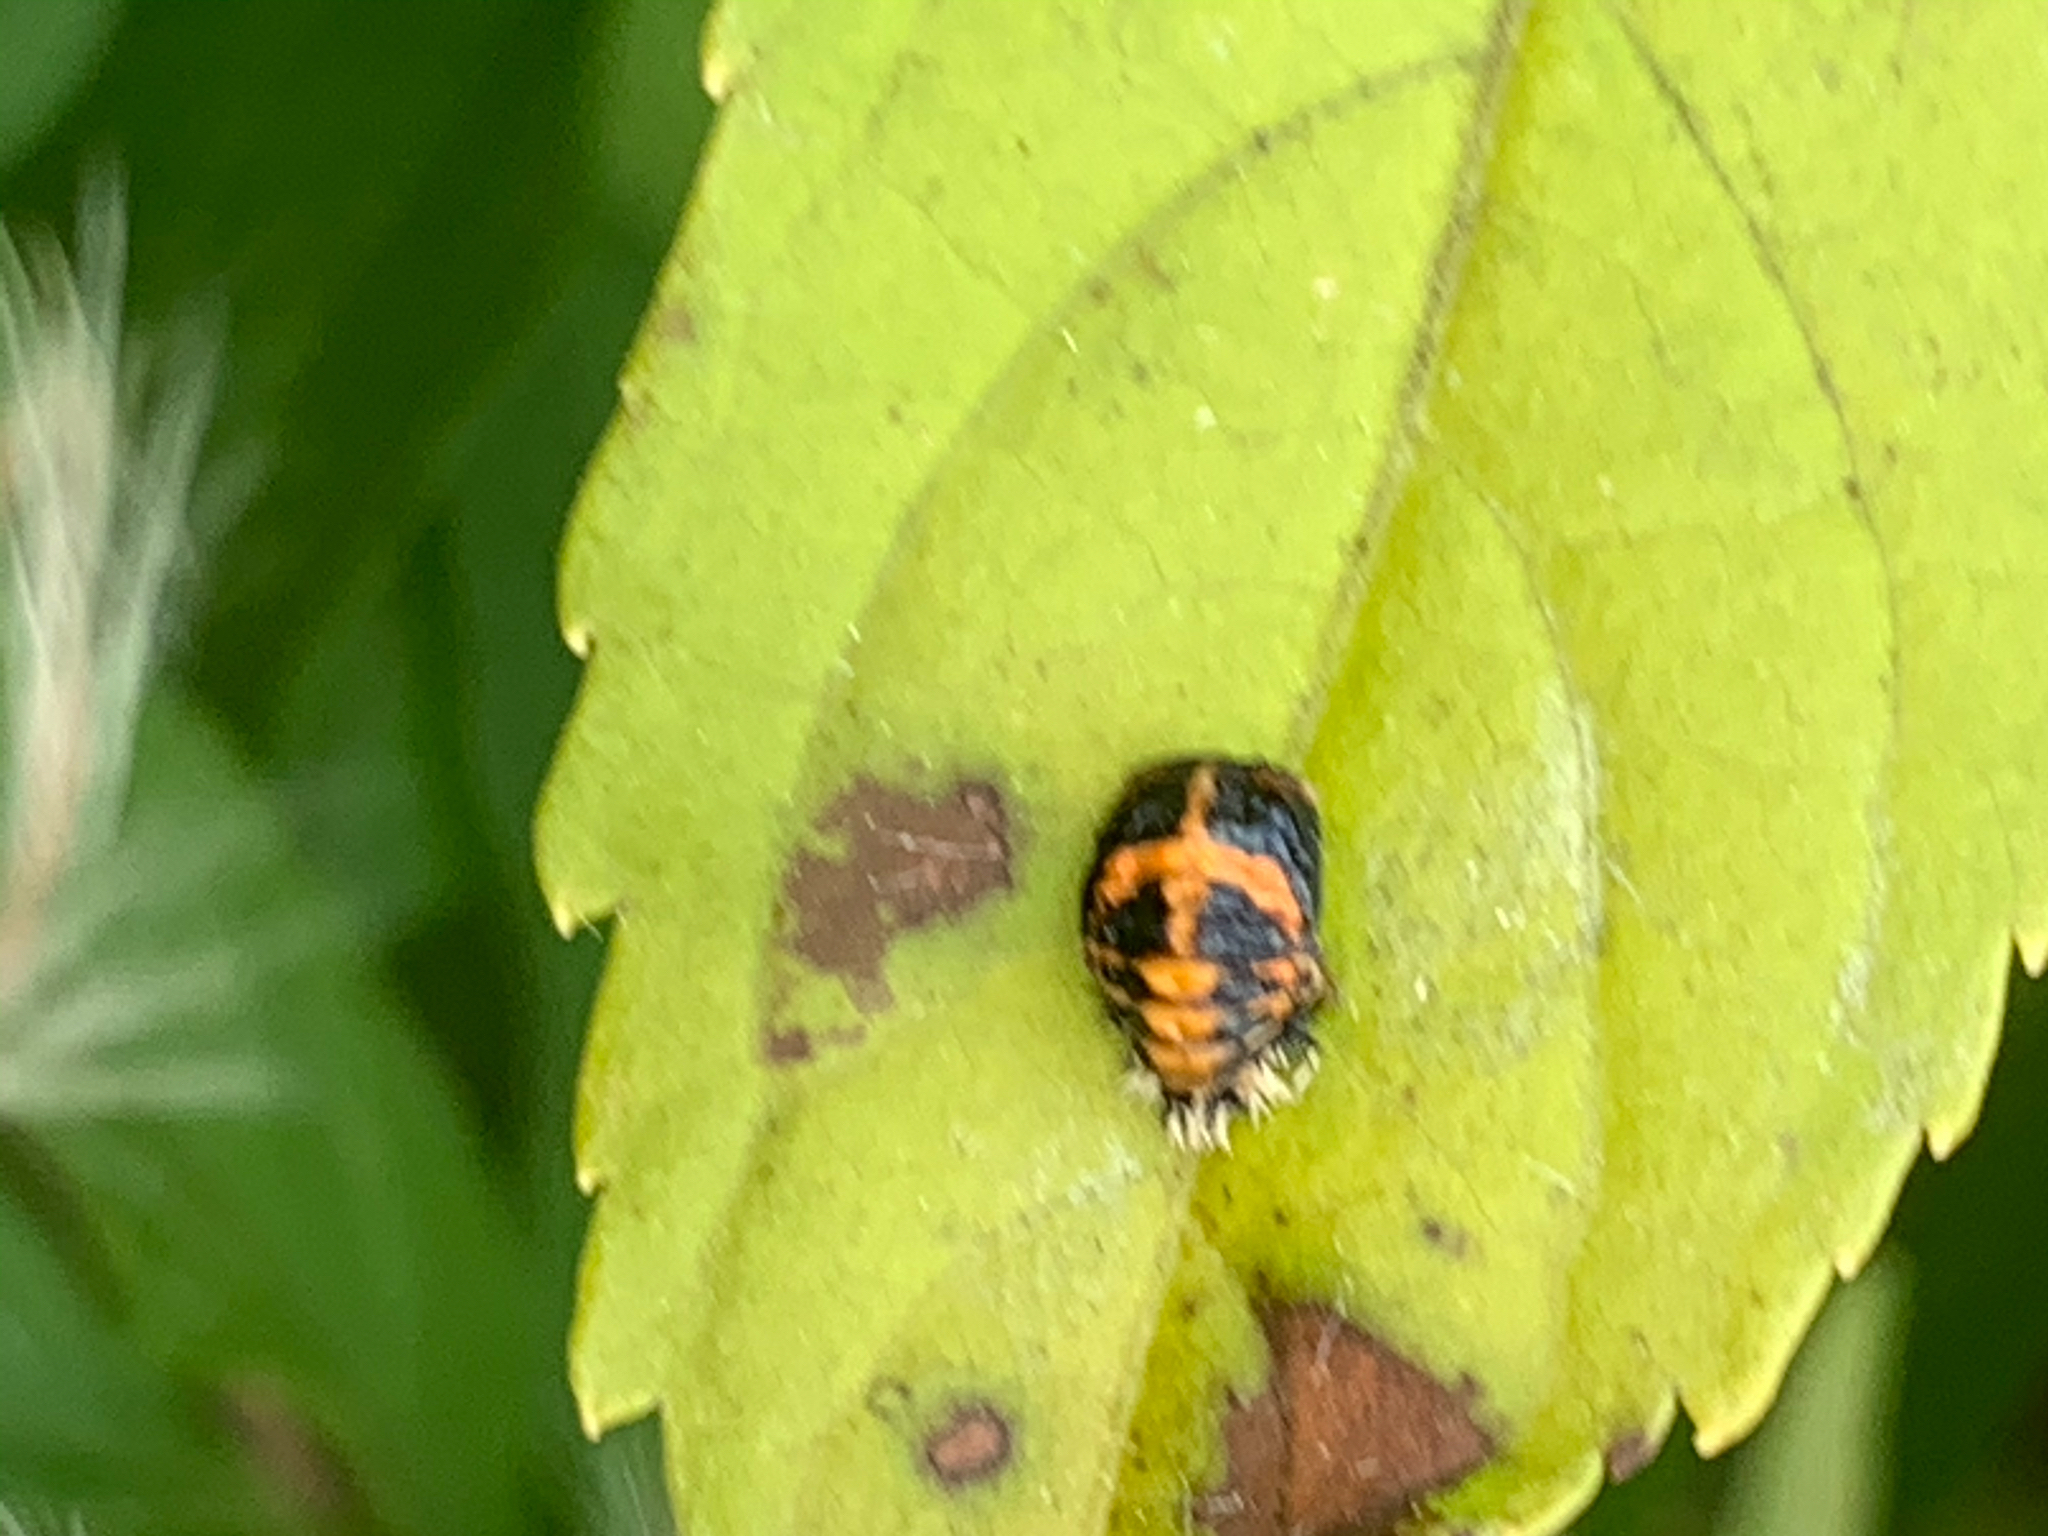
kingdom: Animalia
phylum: Arthropoda
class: Insecta
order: Coleoptera
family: Coccinellidae
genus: Harmonia
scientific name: Harmonia axyridis
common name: Harlequin ladybird
